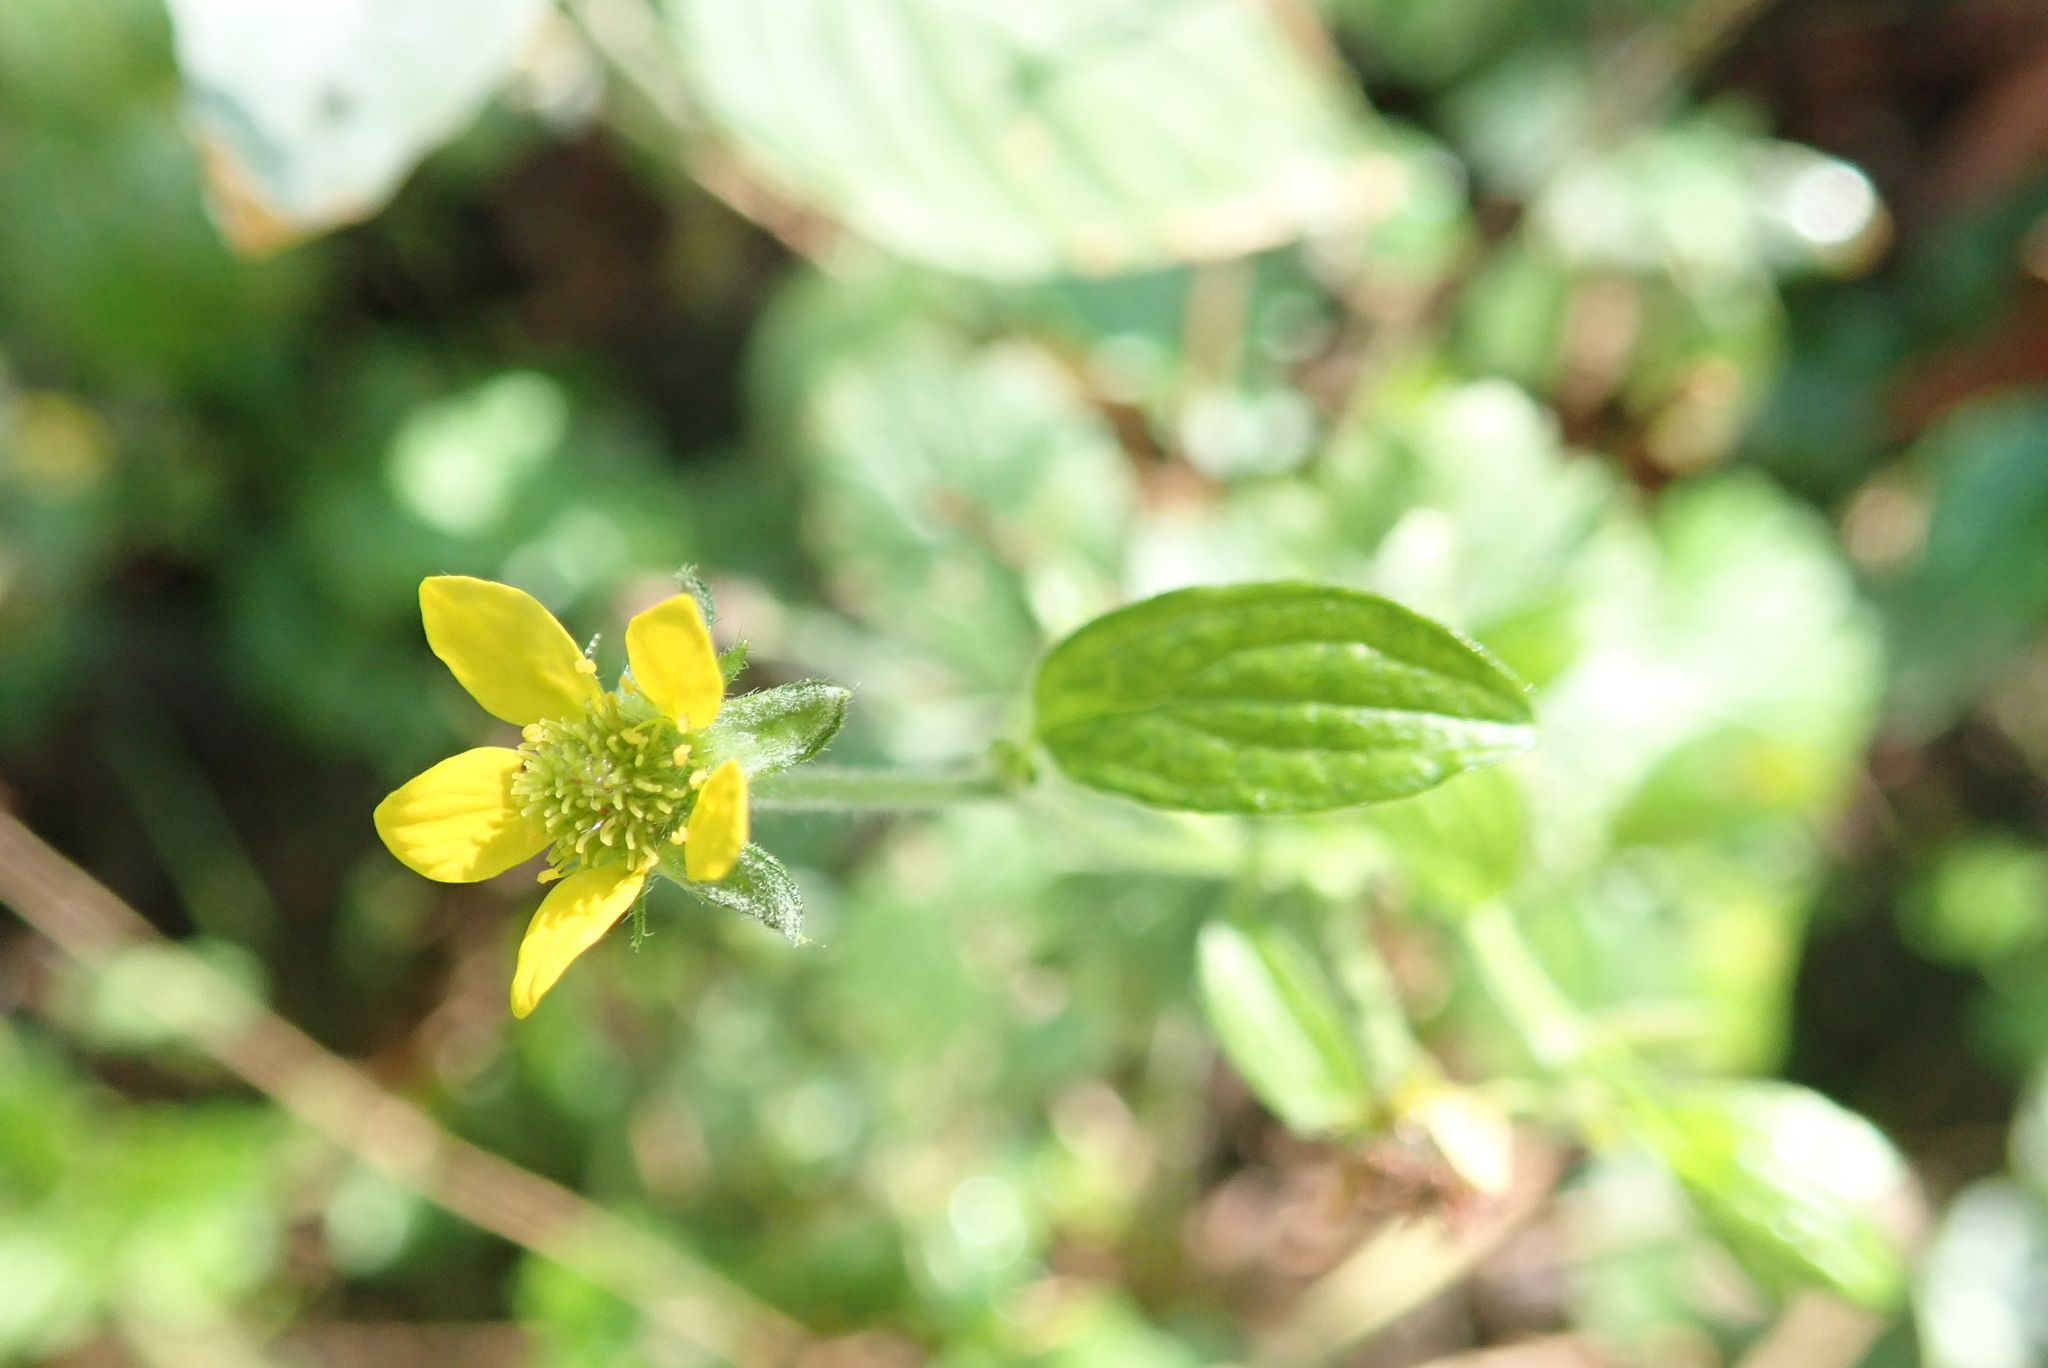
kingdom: Plantae
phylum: Tracheophyta
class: Magnoliopsida
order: Rosales
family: Rosaceae
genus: Geum
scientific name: Geum urbanum
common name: Wood avens
